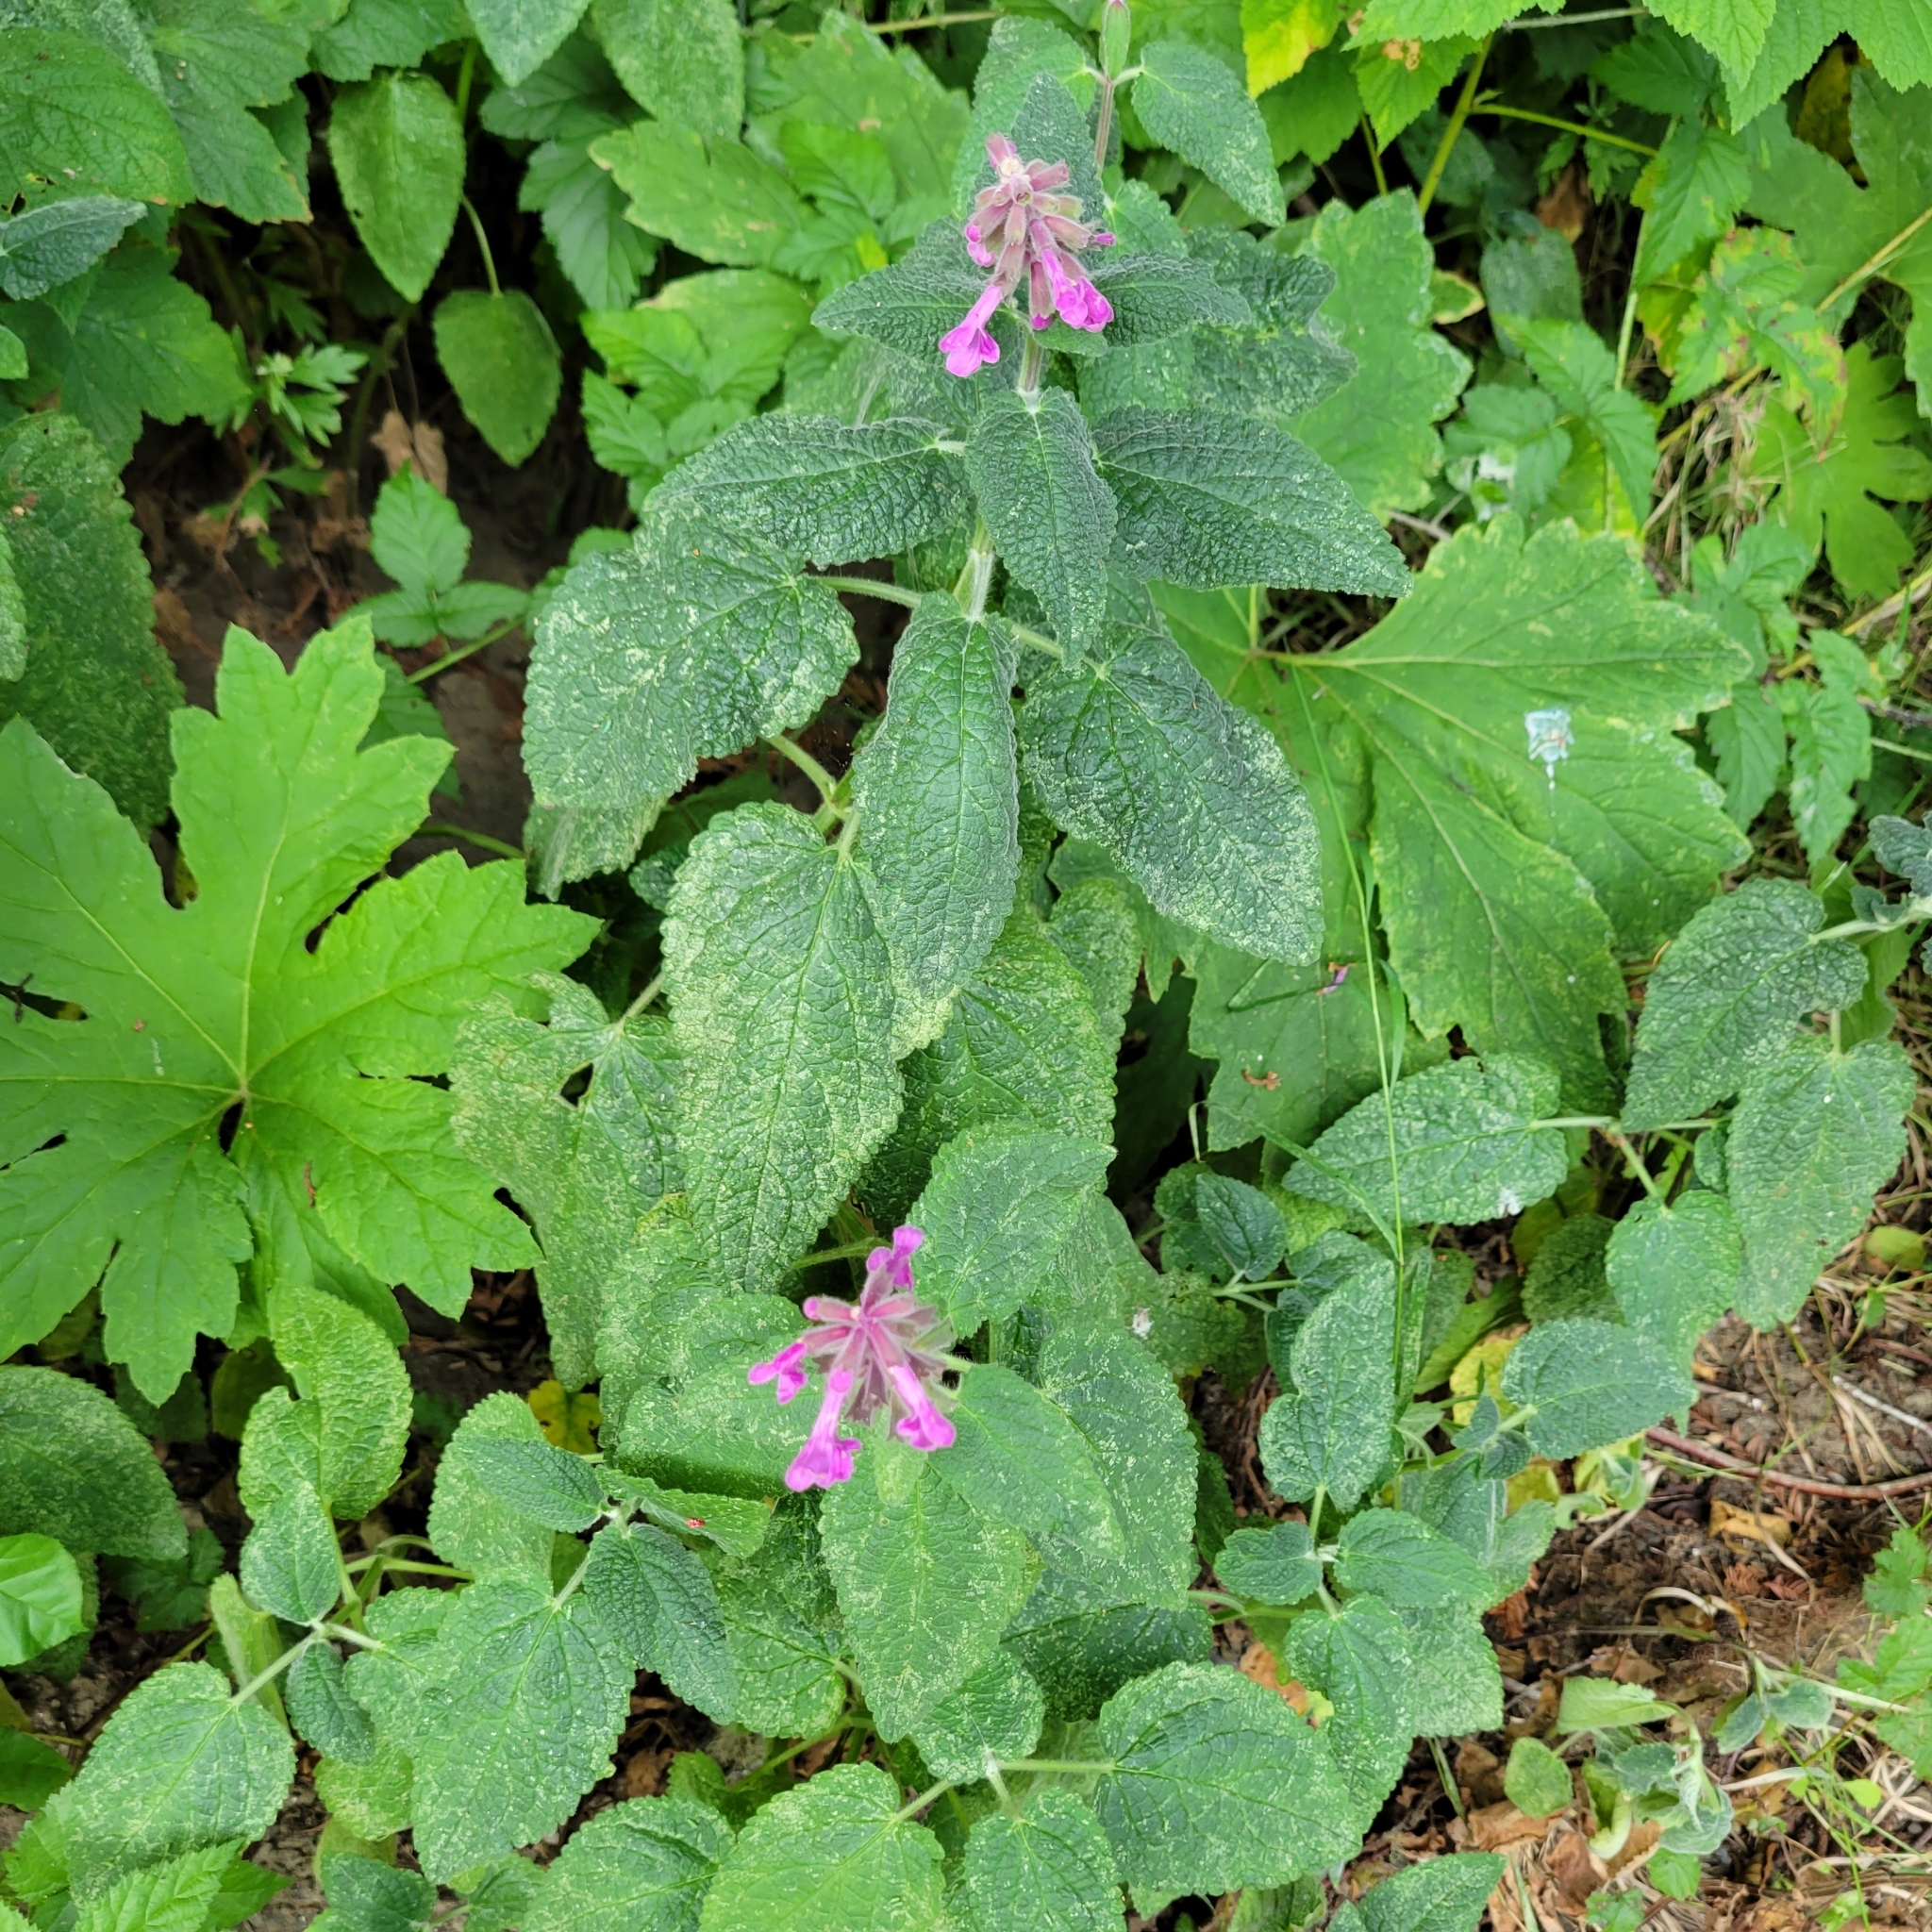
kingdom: Plantae
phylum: Tracheophyta
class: Magnoliopsida
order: Lamiales
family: Lamiaceae
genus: Stachys
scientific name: Stachys chamissonis
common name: Coastal hedge-nettle
